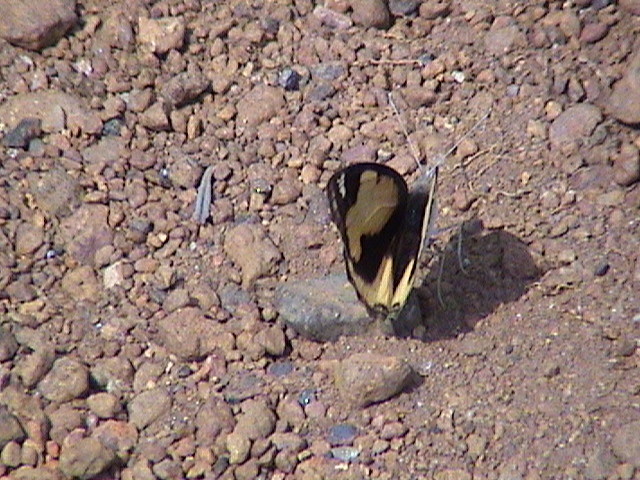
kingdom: Animalia
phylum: Arthropoda
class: Insecta
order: Lepidoptera
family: Nymphalidae
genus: Junonia
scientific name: Junonia hierta
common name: Yellow pansy
